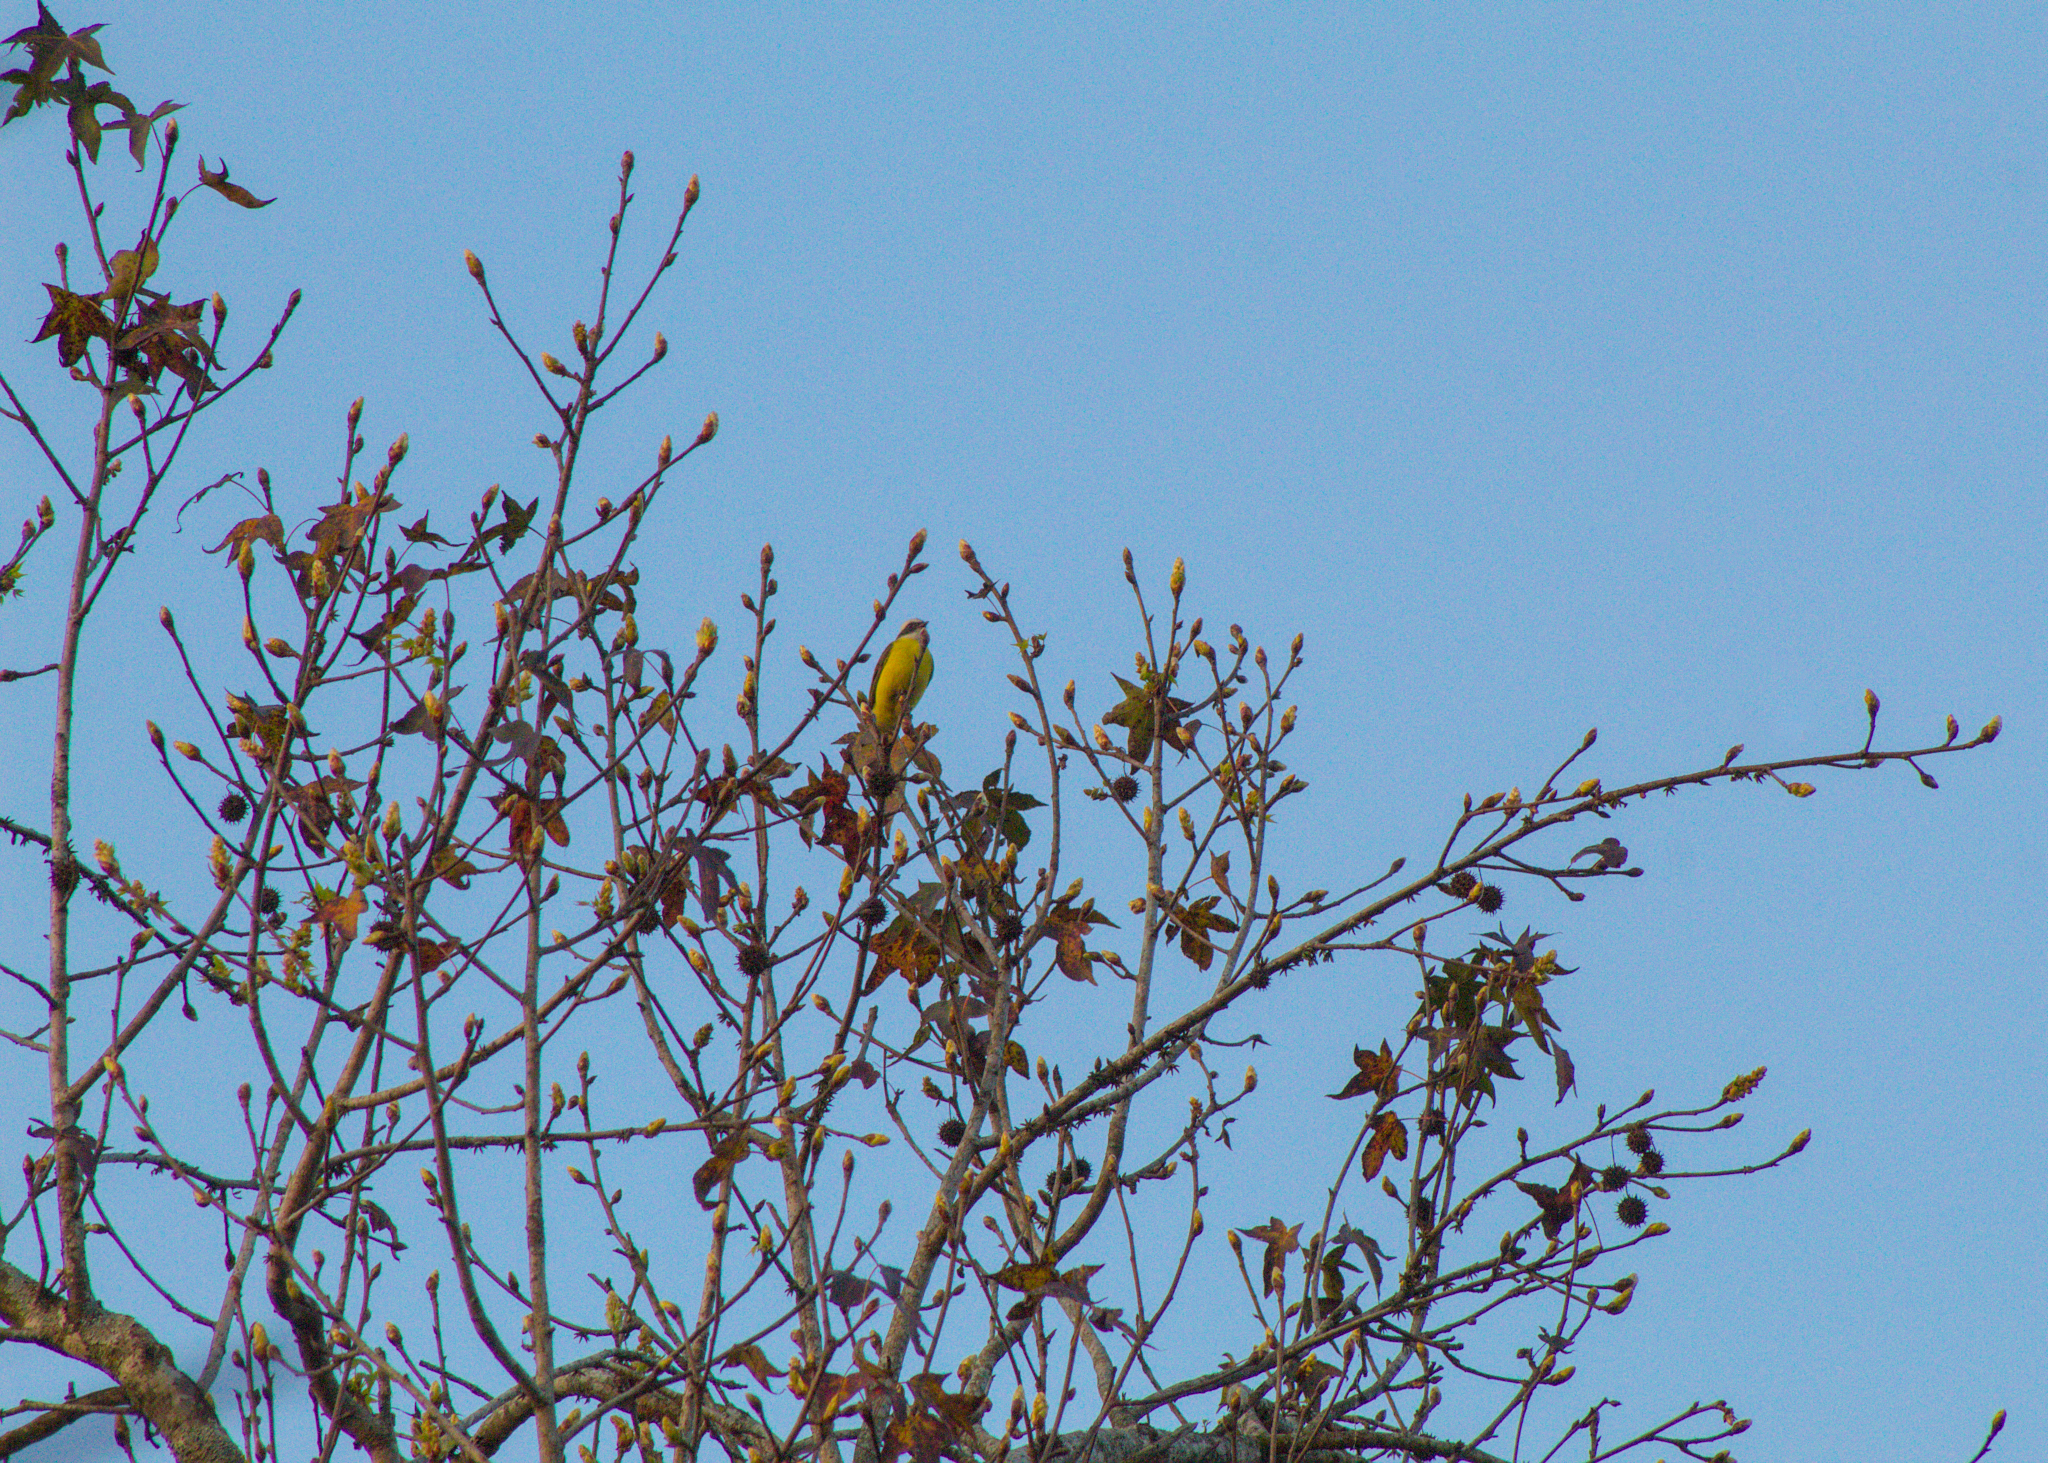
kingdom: Animalia
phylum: Chordata
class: Aves
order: Passeriformes
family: Tyrannidae
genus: Myiozetetes
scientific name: Myiozetetes similis
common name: Social flycatcher
